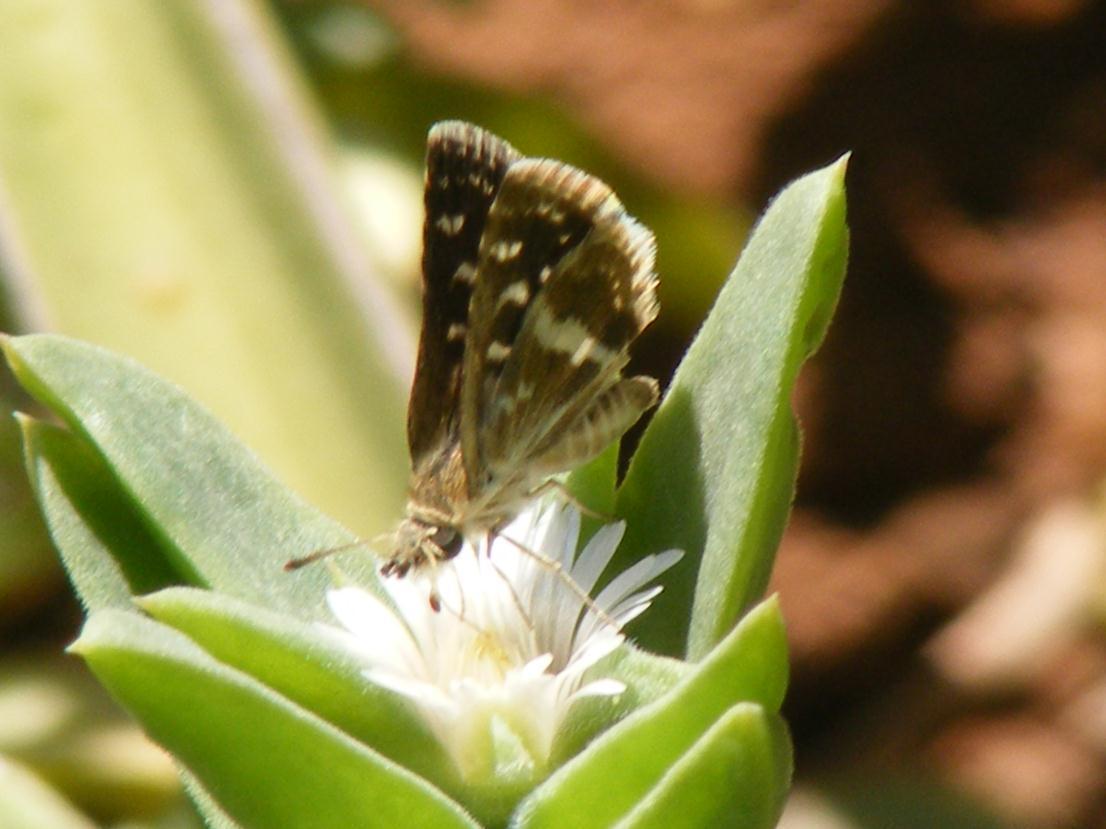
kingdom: Animalia
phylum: Arthropoda
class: Insecta
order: Lepidoptera
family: Hesperiidae
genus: Ernsta
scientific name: Ernsta delagoae
